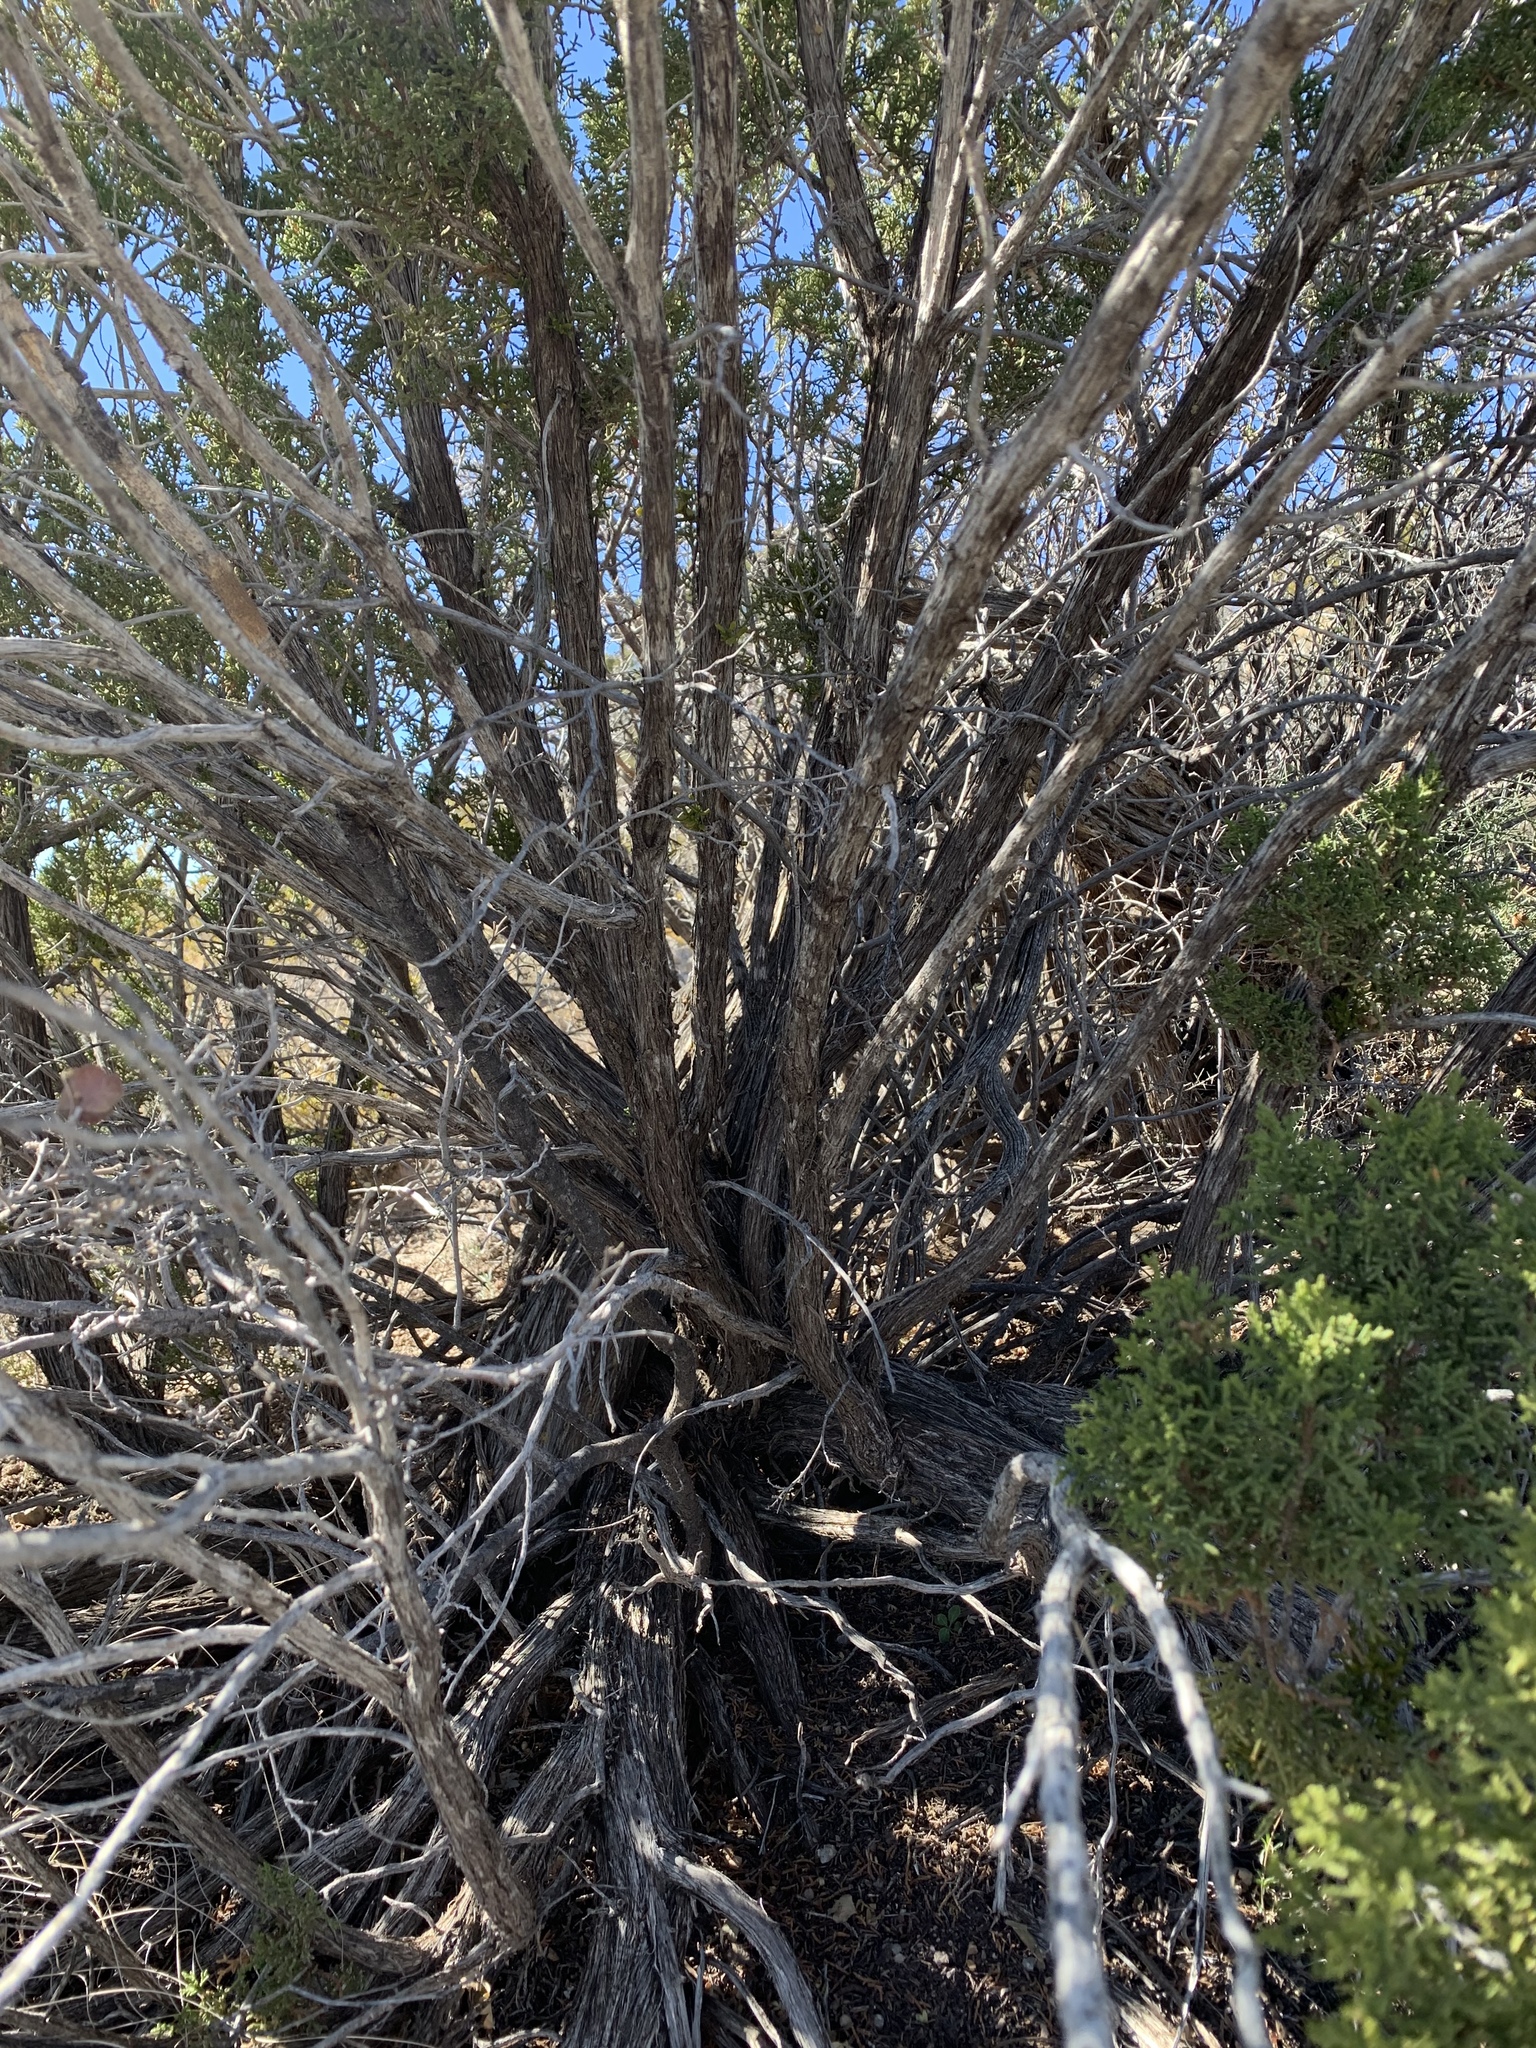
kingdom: Plantae
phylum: Tracheophyta
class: Pinopsida
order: Pinales
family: Cupressaceae
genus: Juniperus
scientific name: Juniperus monosperma
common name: One-seed juniper
